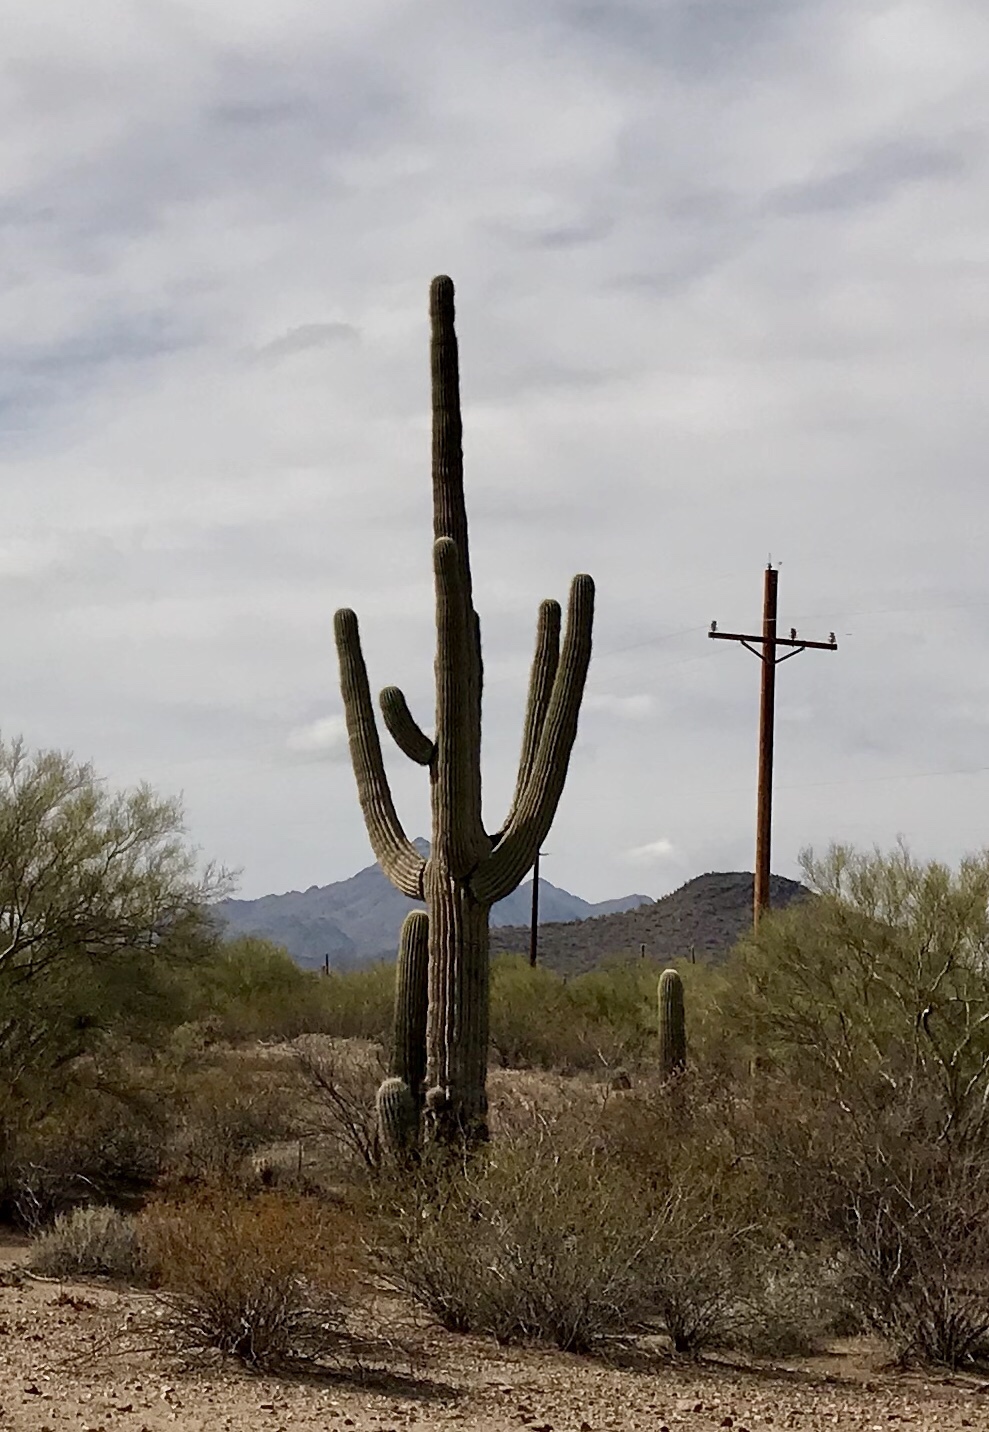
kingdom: Plantae
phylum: Tracheophyta
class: Magnoliopsida
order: Caryophyllales
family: Cactaceae
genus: Carnegiea
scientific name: Carnegiea gigantea
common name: Saguaro
